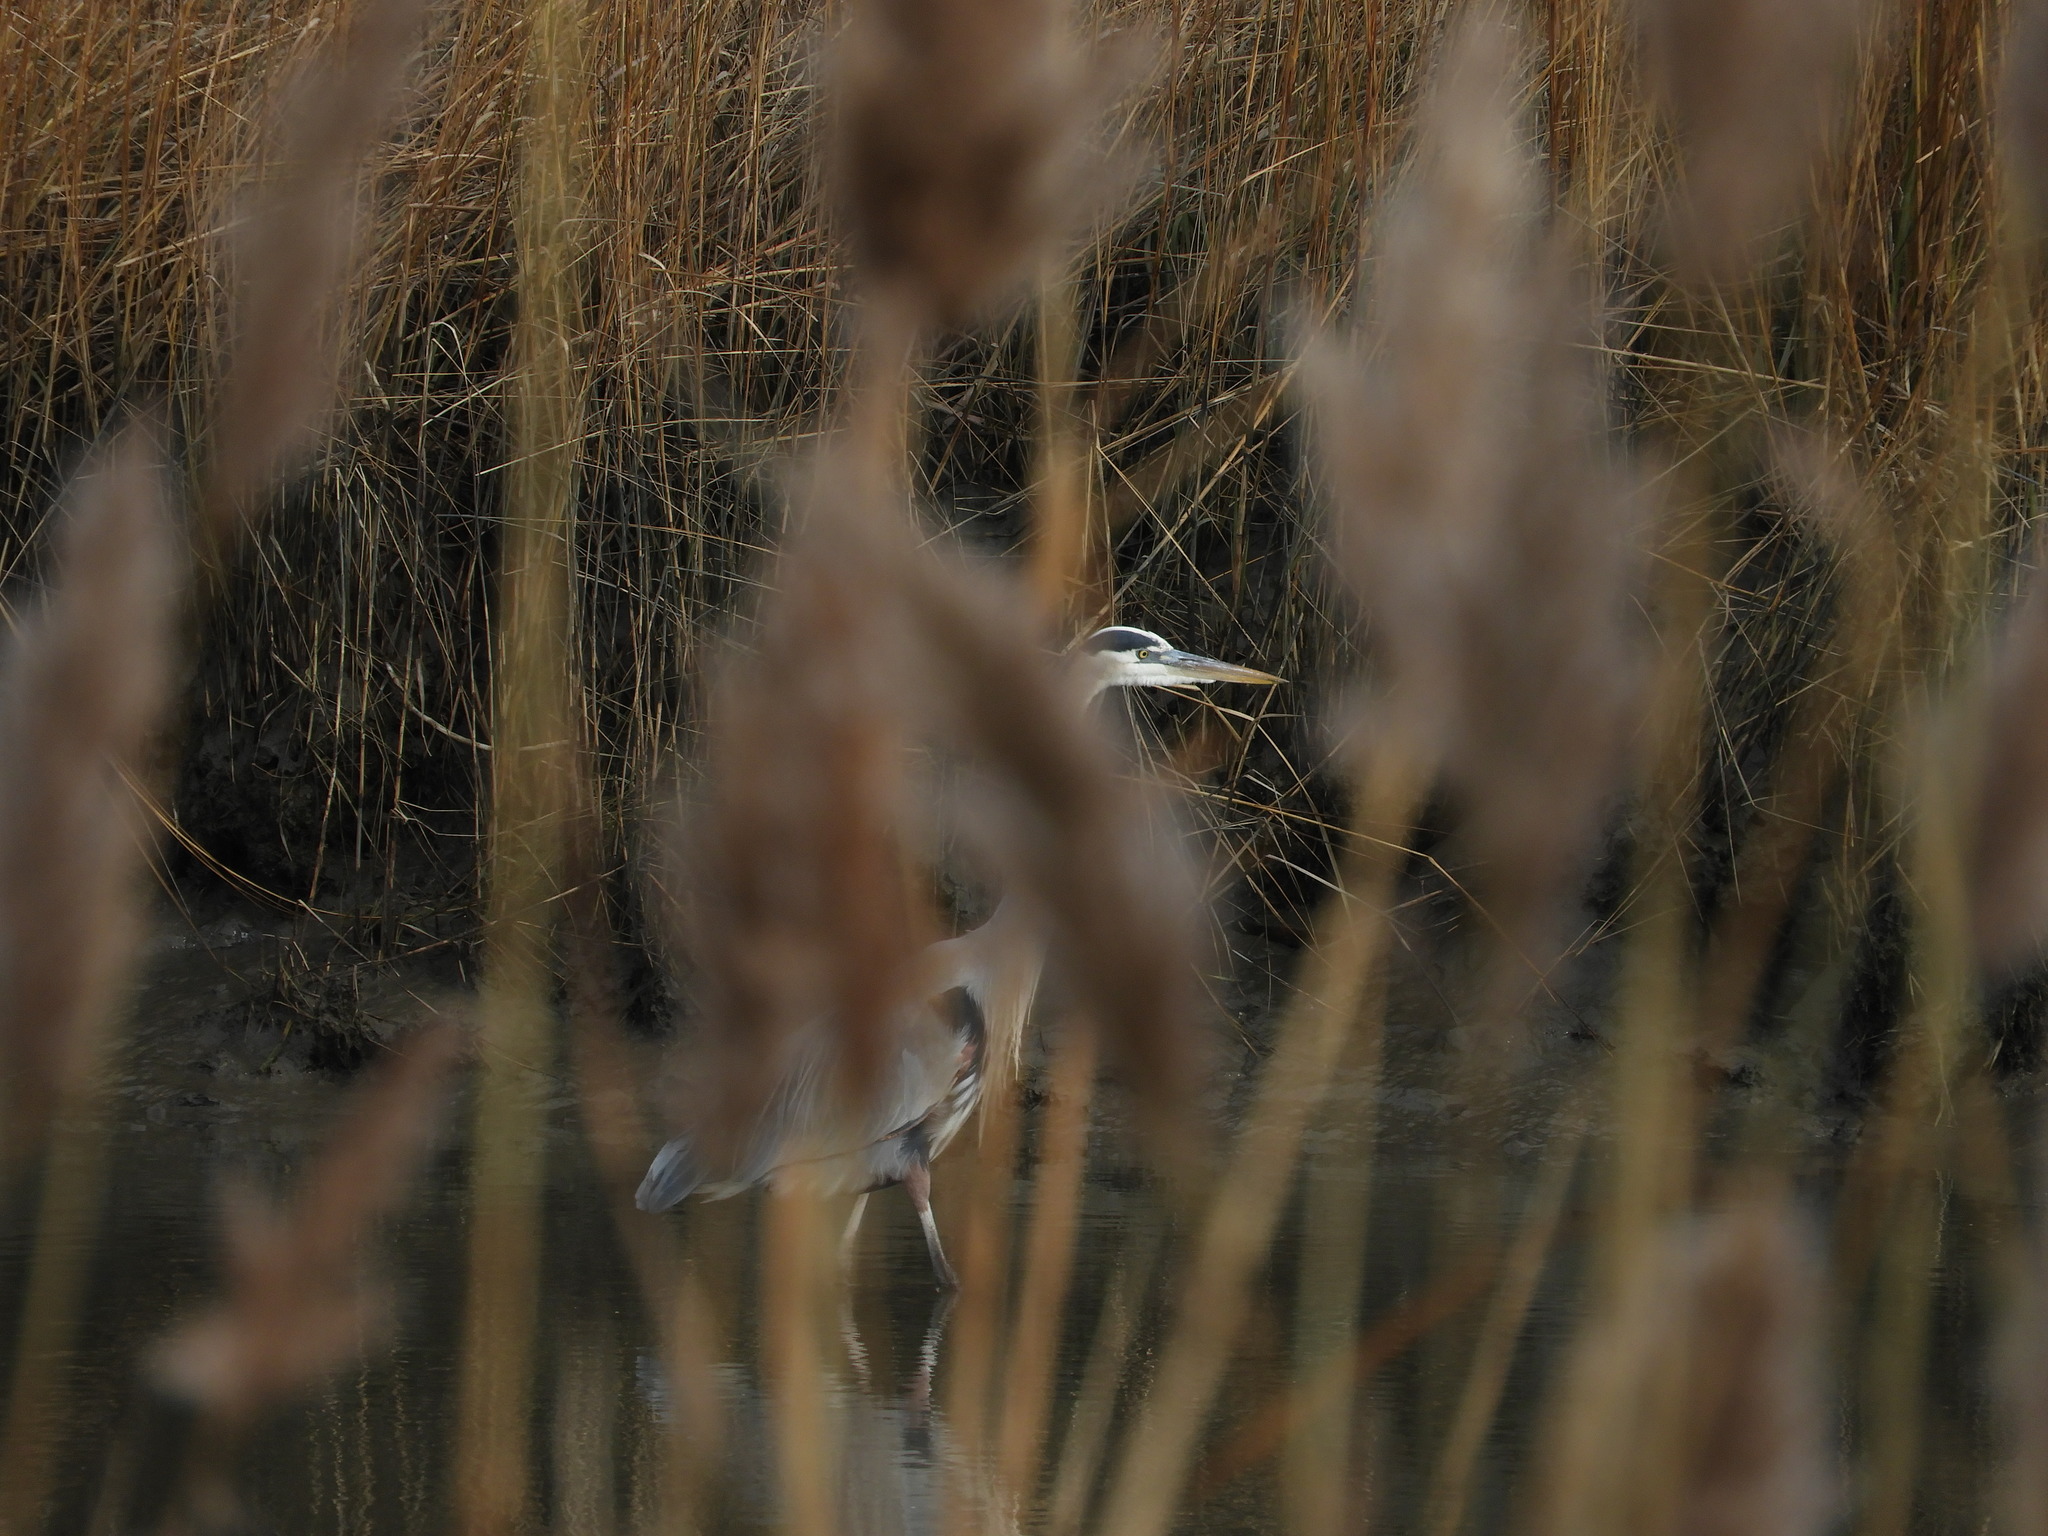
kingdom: Animalia
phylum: Chordata
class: Aves
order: Pelecaniformes
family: Ardeidae
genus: Ardea
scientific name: Ardea herodias
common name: Great blue heron
